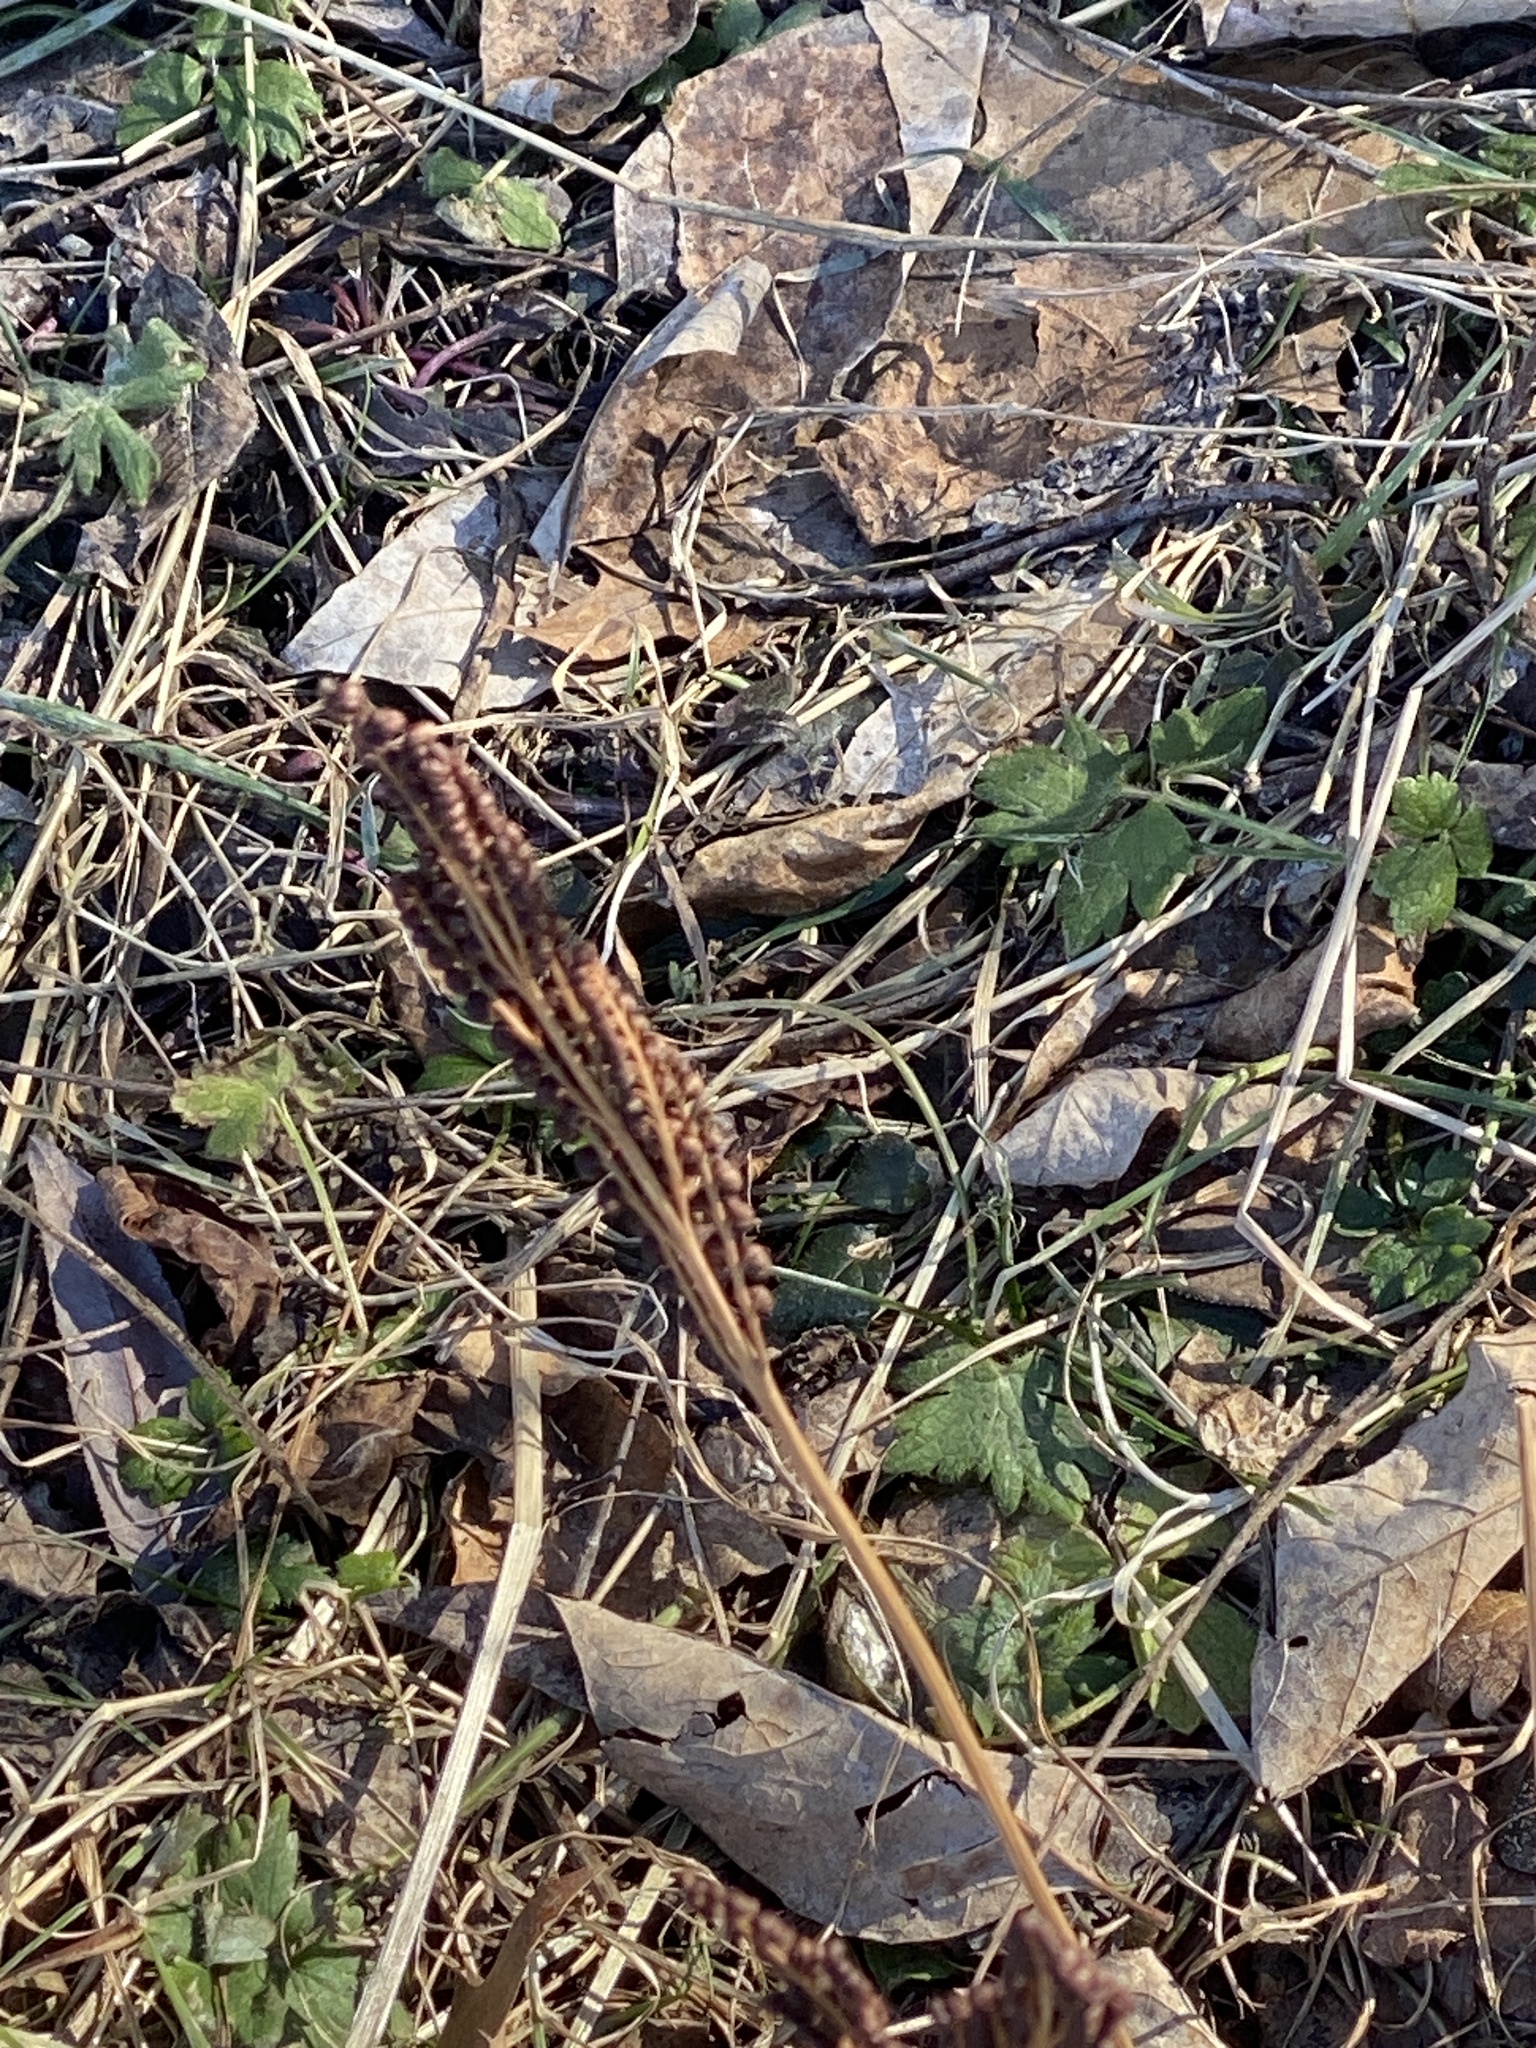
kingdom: Plantae
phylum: Tracheophyta
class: Polypodiopsida
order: Polypodiales
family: Onocleaceae
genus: Onoclea
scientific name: Onoclea sensibilis
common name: Sensitive fern
